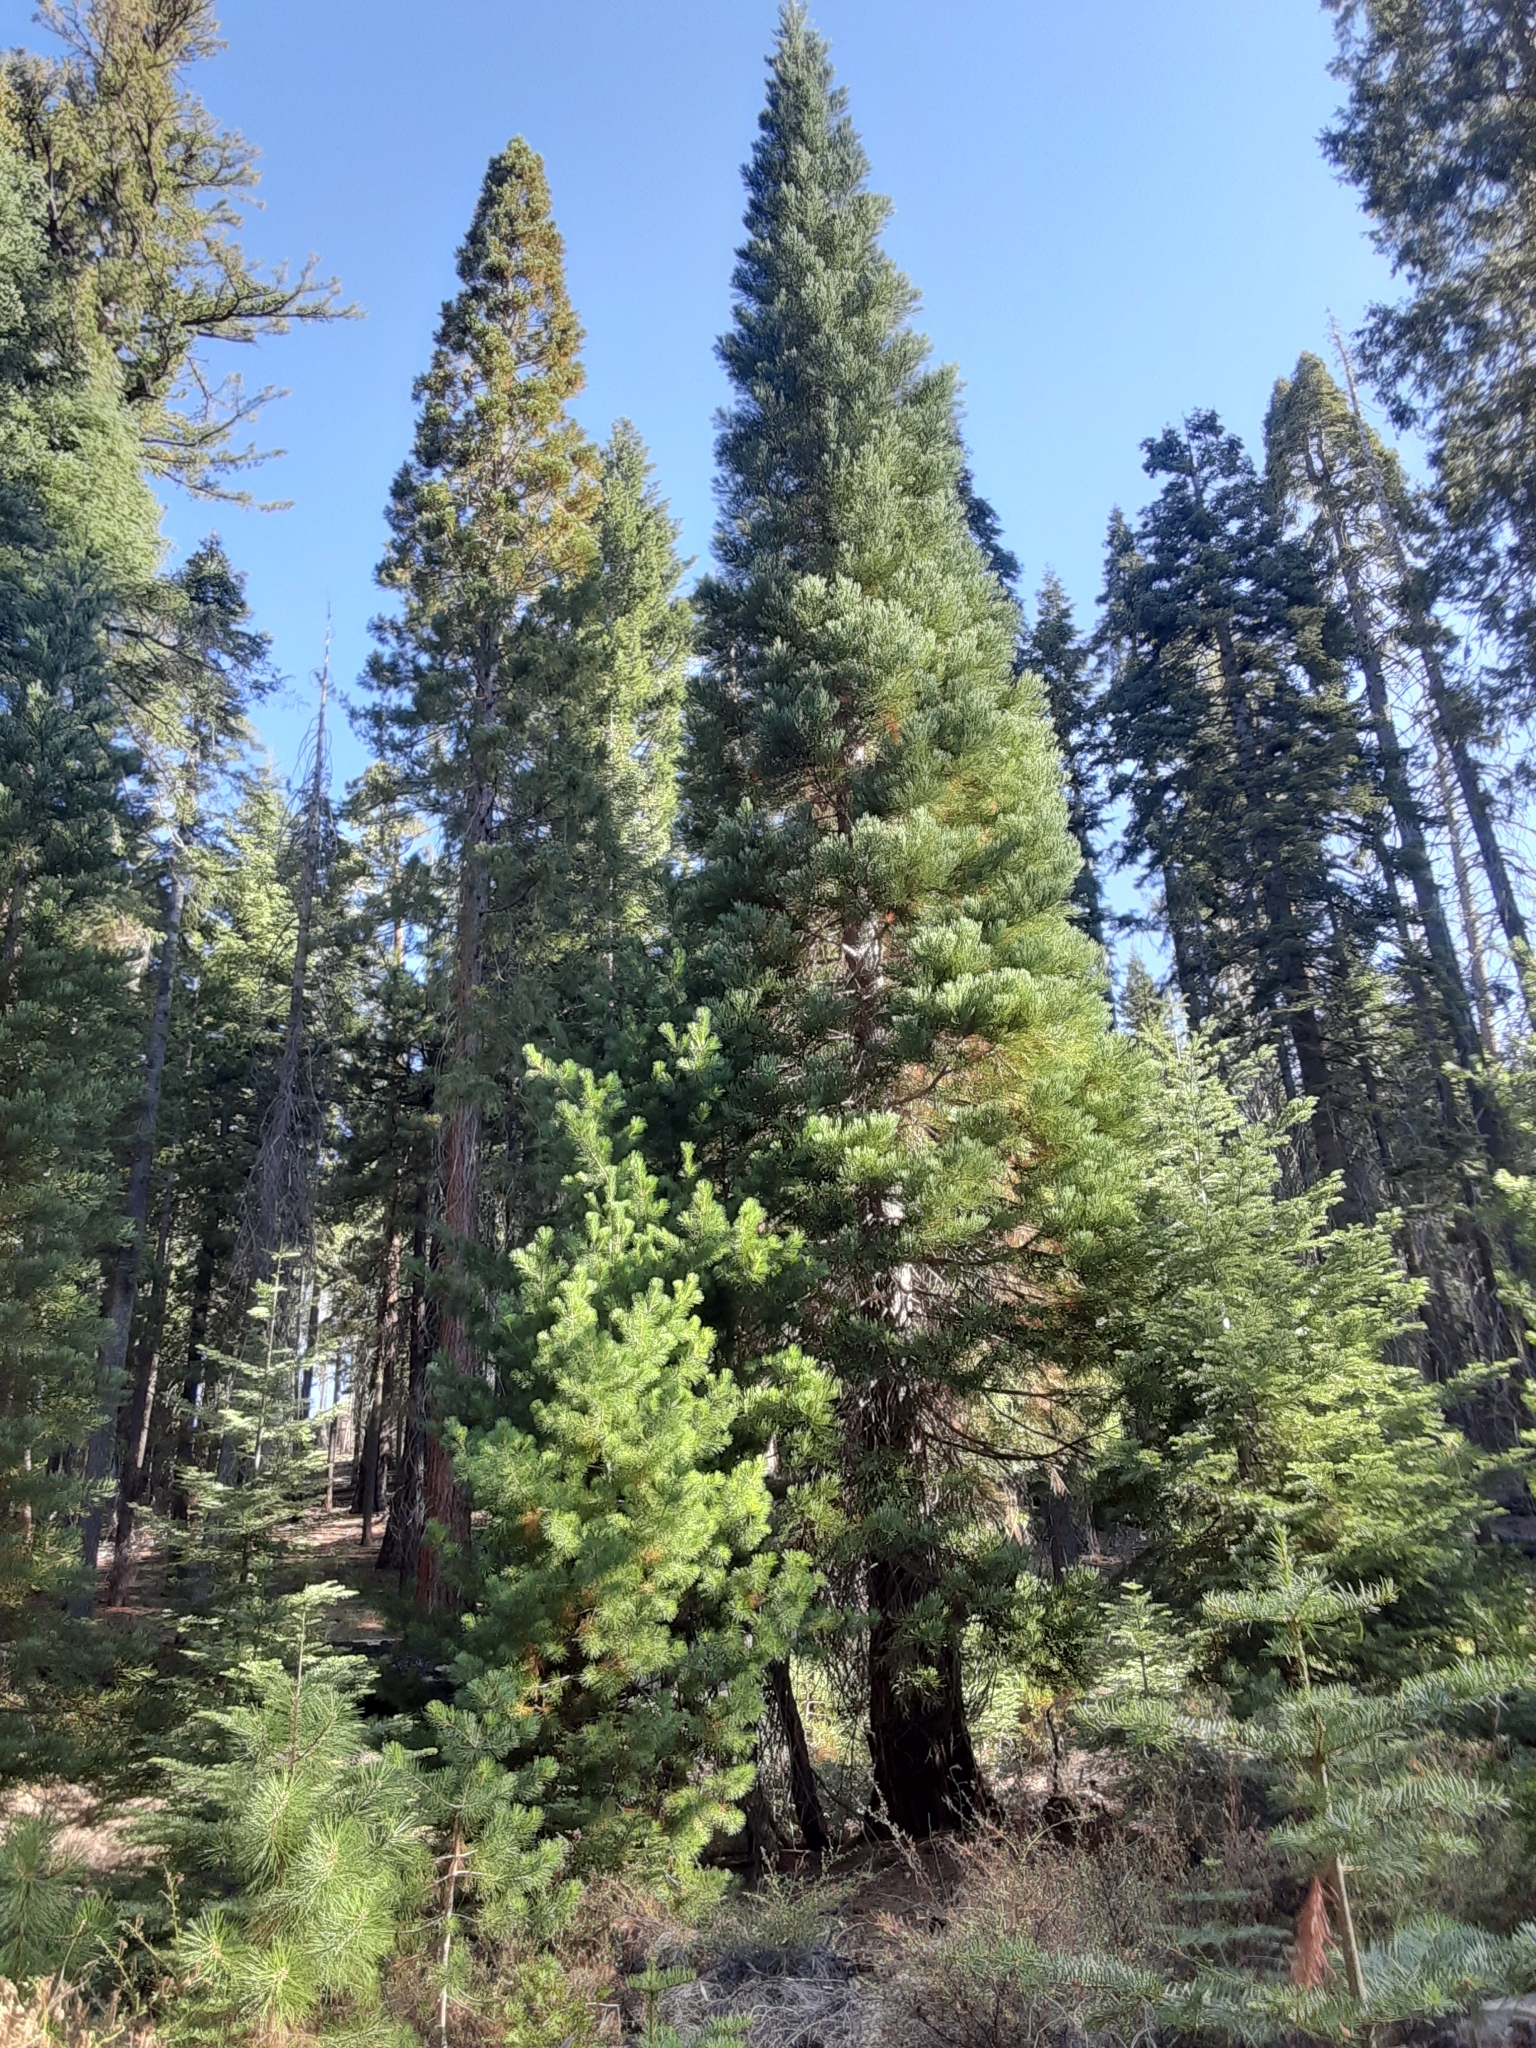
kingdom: Plantae
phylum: Tracheophyta
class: Pinopsida
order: Pinales
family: Cupressaceae
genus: Sequoiadendron
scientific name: Sequoiadendron giganteum
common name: Wellingtonia
